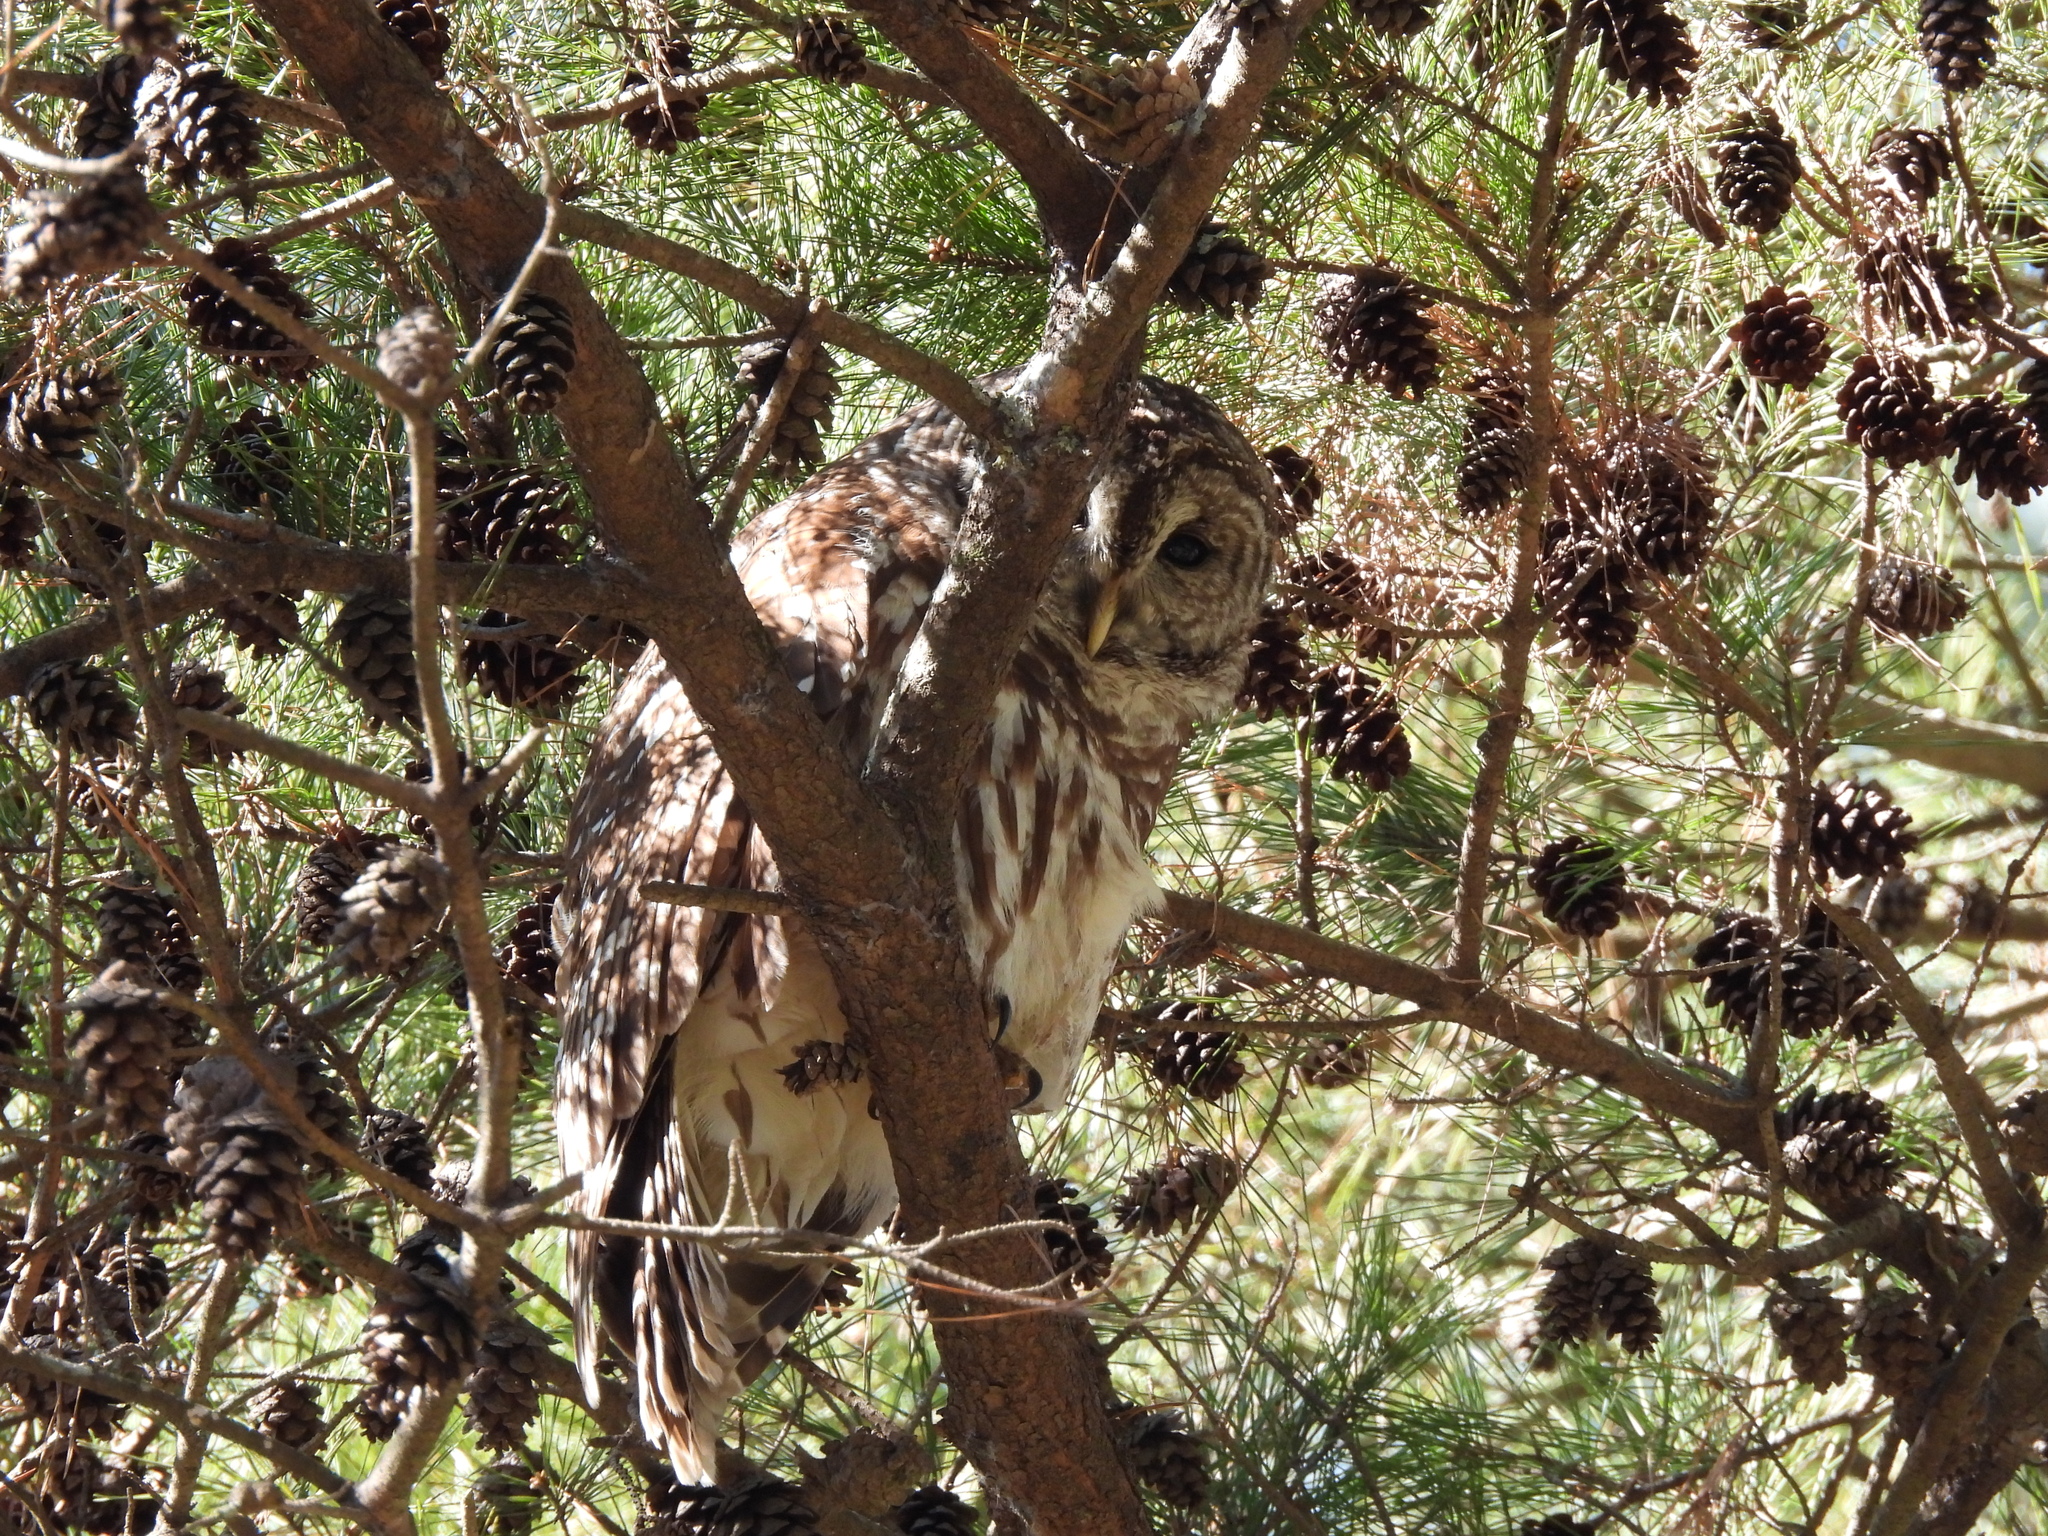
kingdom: Animalia
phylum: Chordata
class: Aves
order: Strigiformes
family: Strigidae
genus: Strix
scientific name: Strix varia
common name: Barred owl
